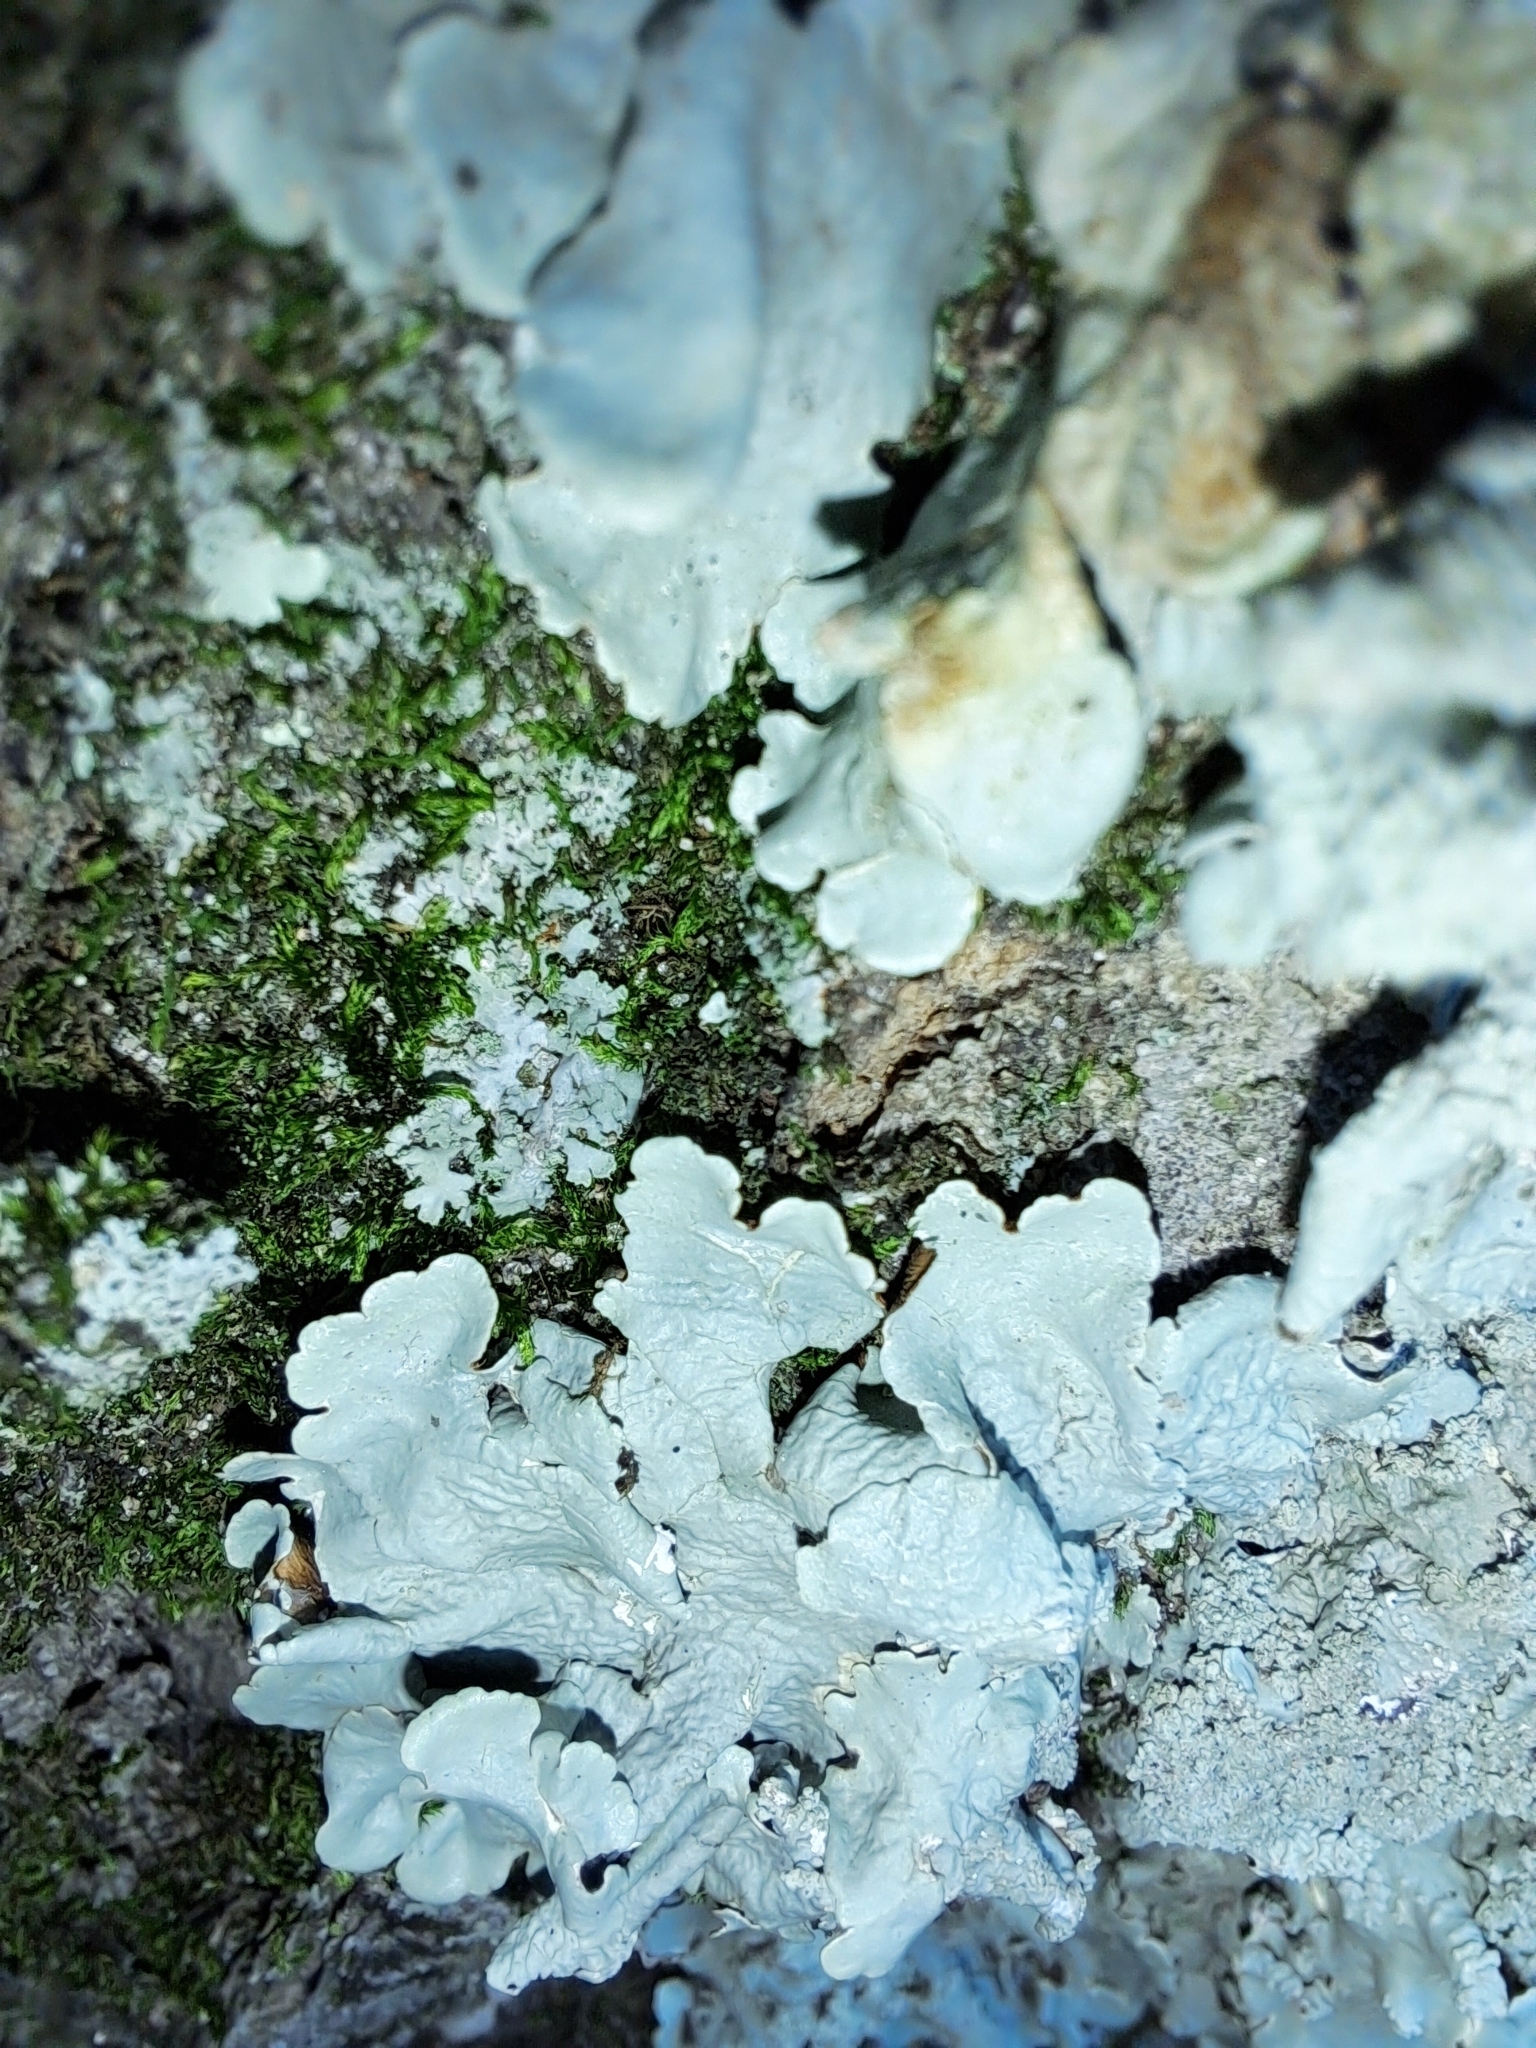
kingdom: Fungi
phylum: Ascomycota
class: Lecanoromycetes
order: Lecanorales
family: Parmeliaceae
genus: Flavoparmelia
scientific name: Flavoparmelia caperata
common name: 40-mile per hour lichen
